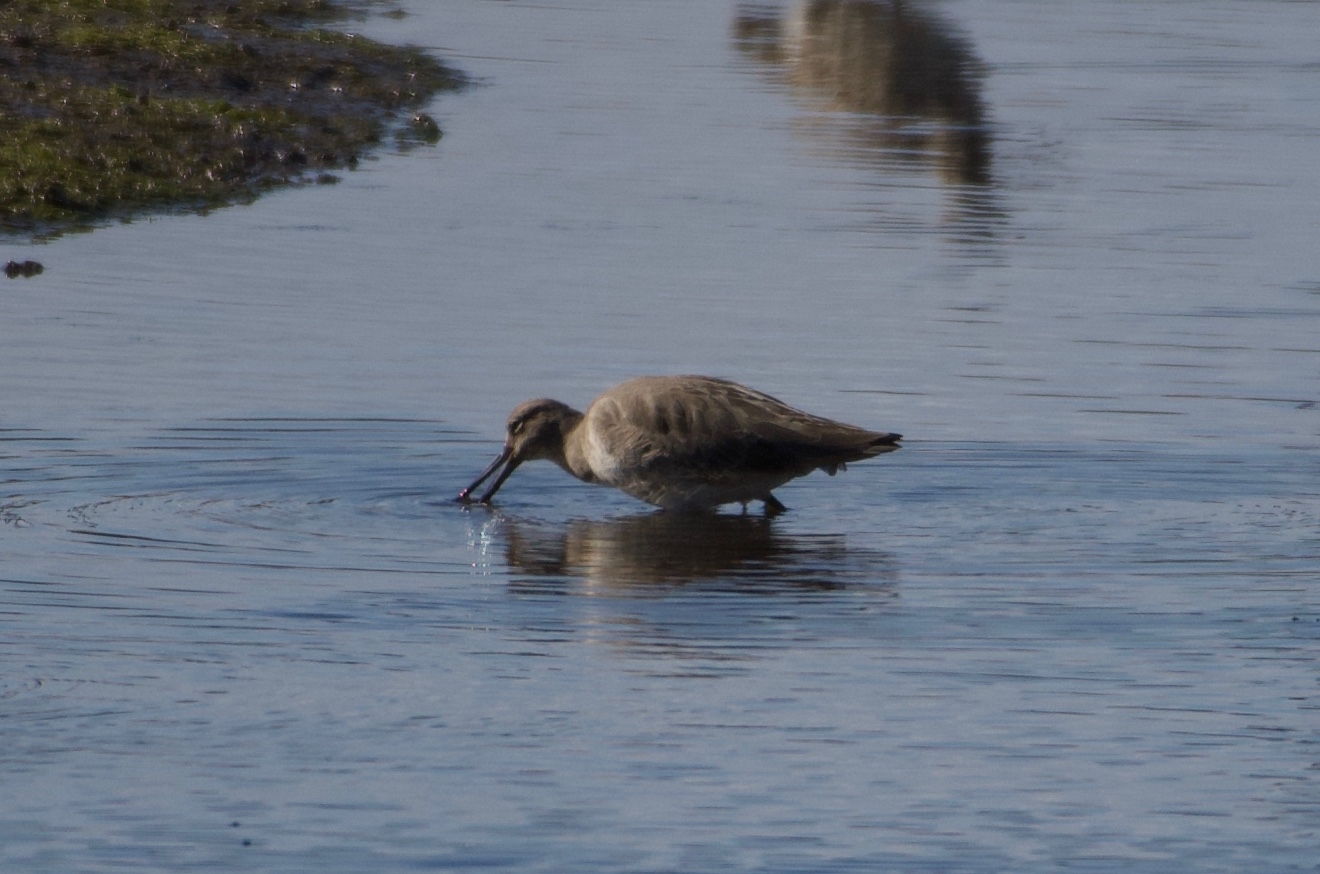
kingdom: Animalia
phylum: Chordata
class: Aves
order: Charadriiformes
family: Scolopacidae
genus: Tringa
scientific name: Tringa semipalmata
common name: Willet
